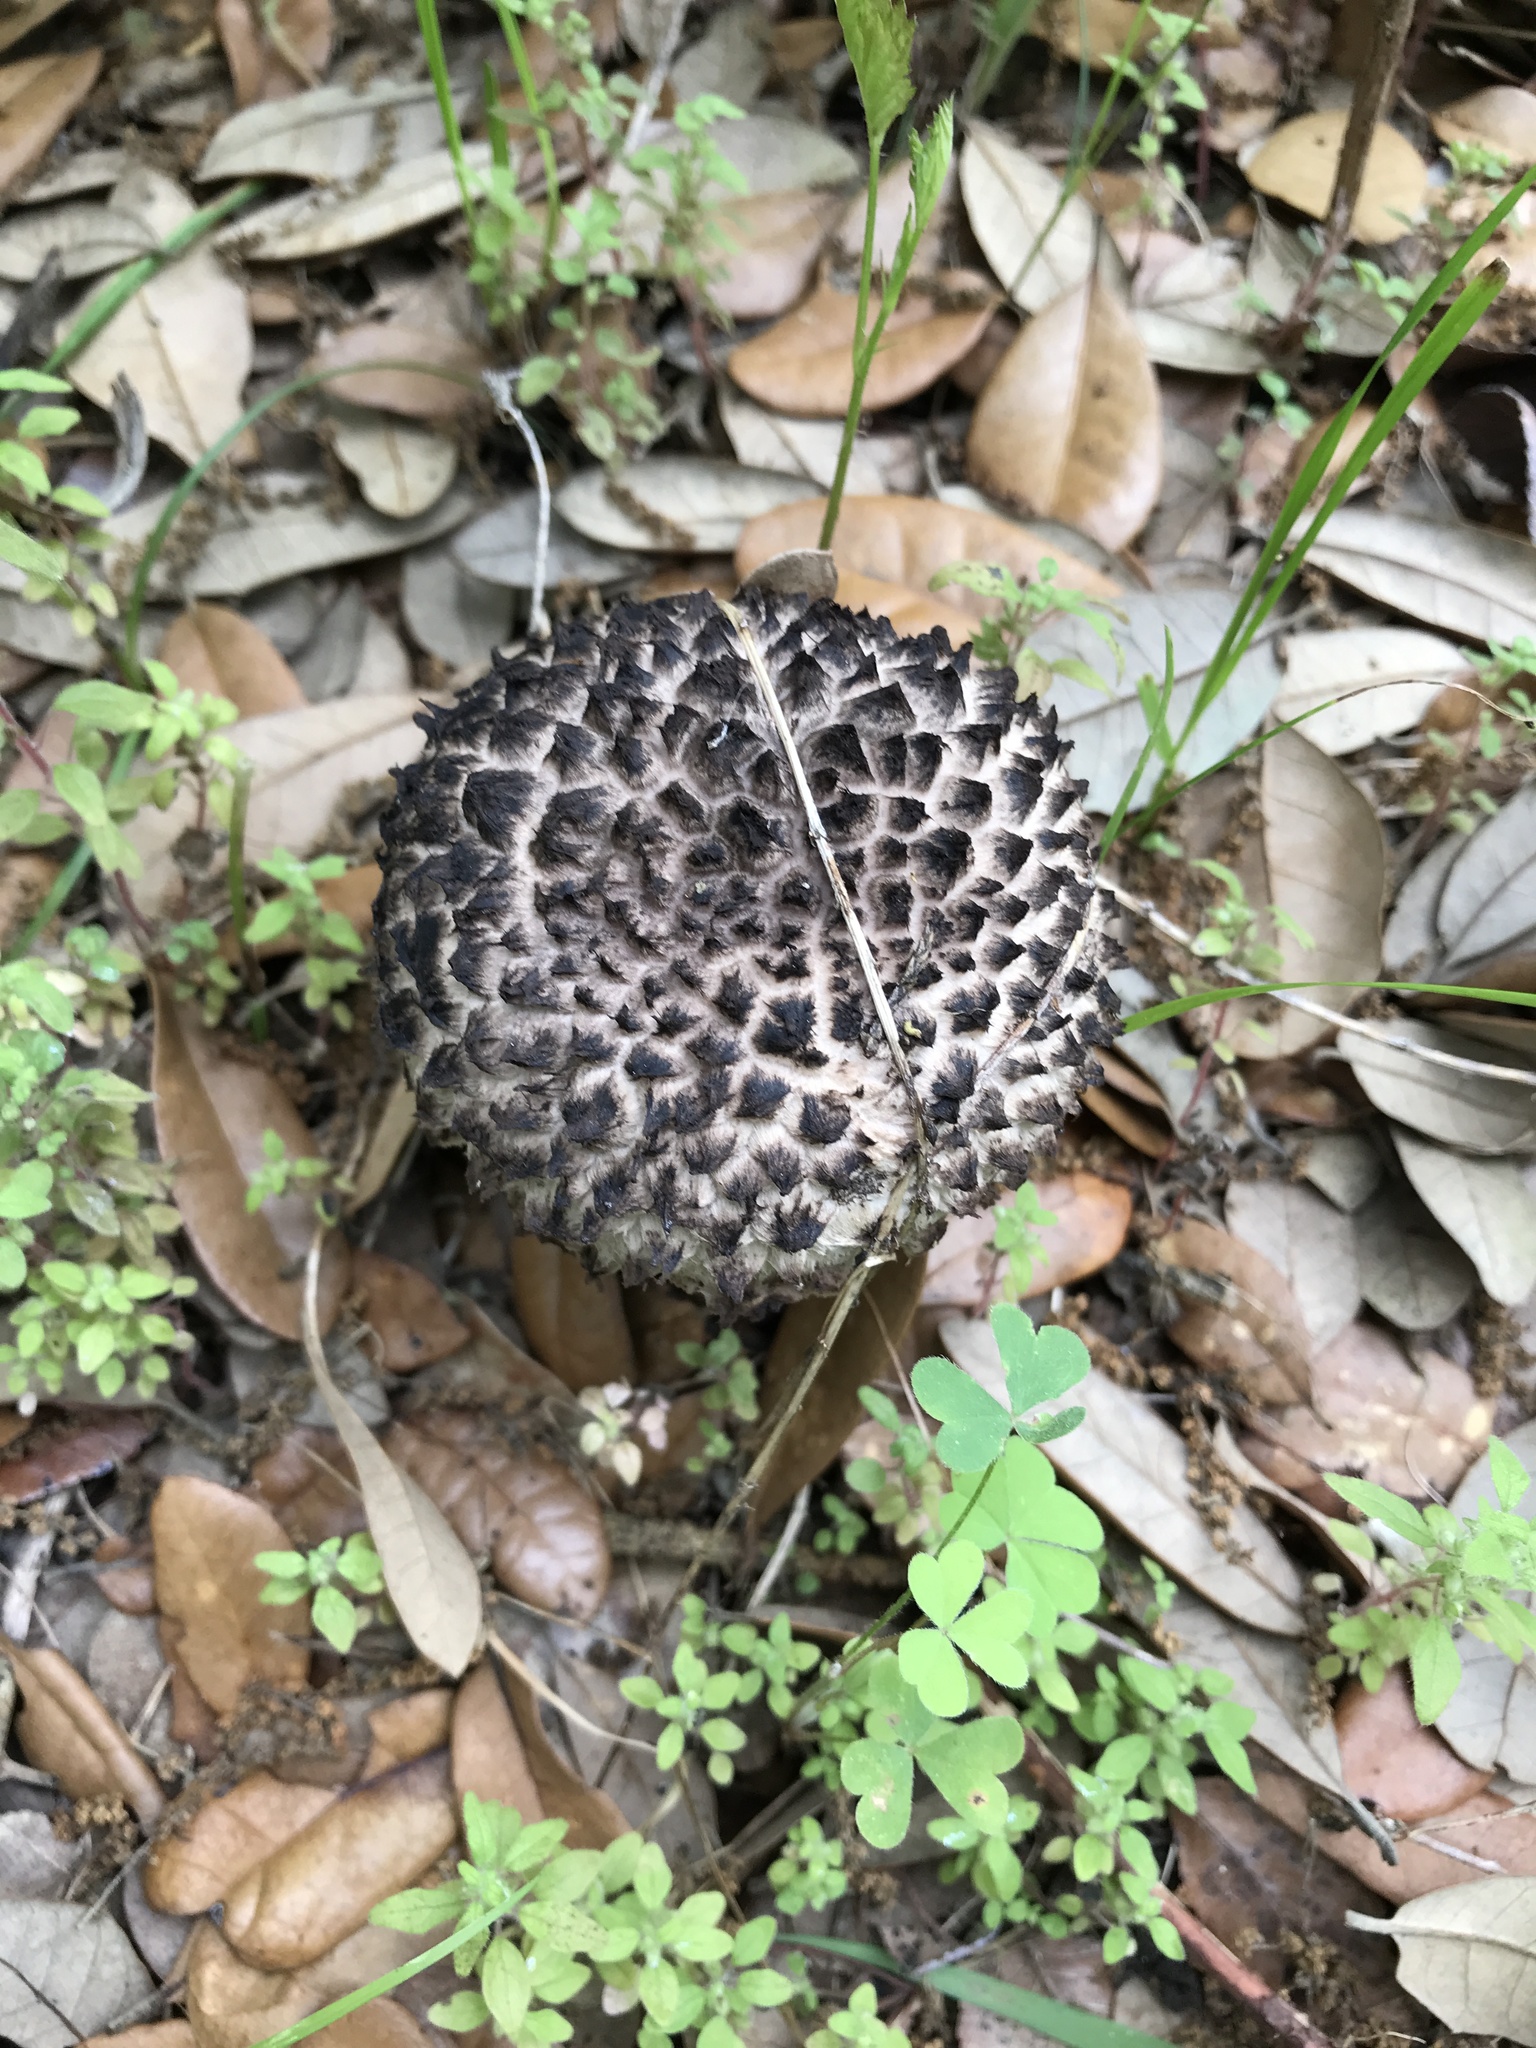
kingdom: Fungi
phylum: Basidiomycota
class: Agaricomycetes
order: Boletales
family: Boletaceae
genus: Strobilomyces
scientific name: Strobilomyces strobilaceus
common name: Old man of the woods
